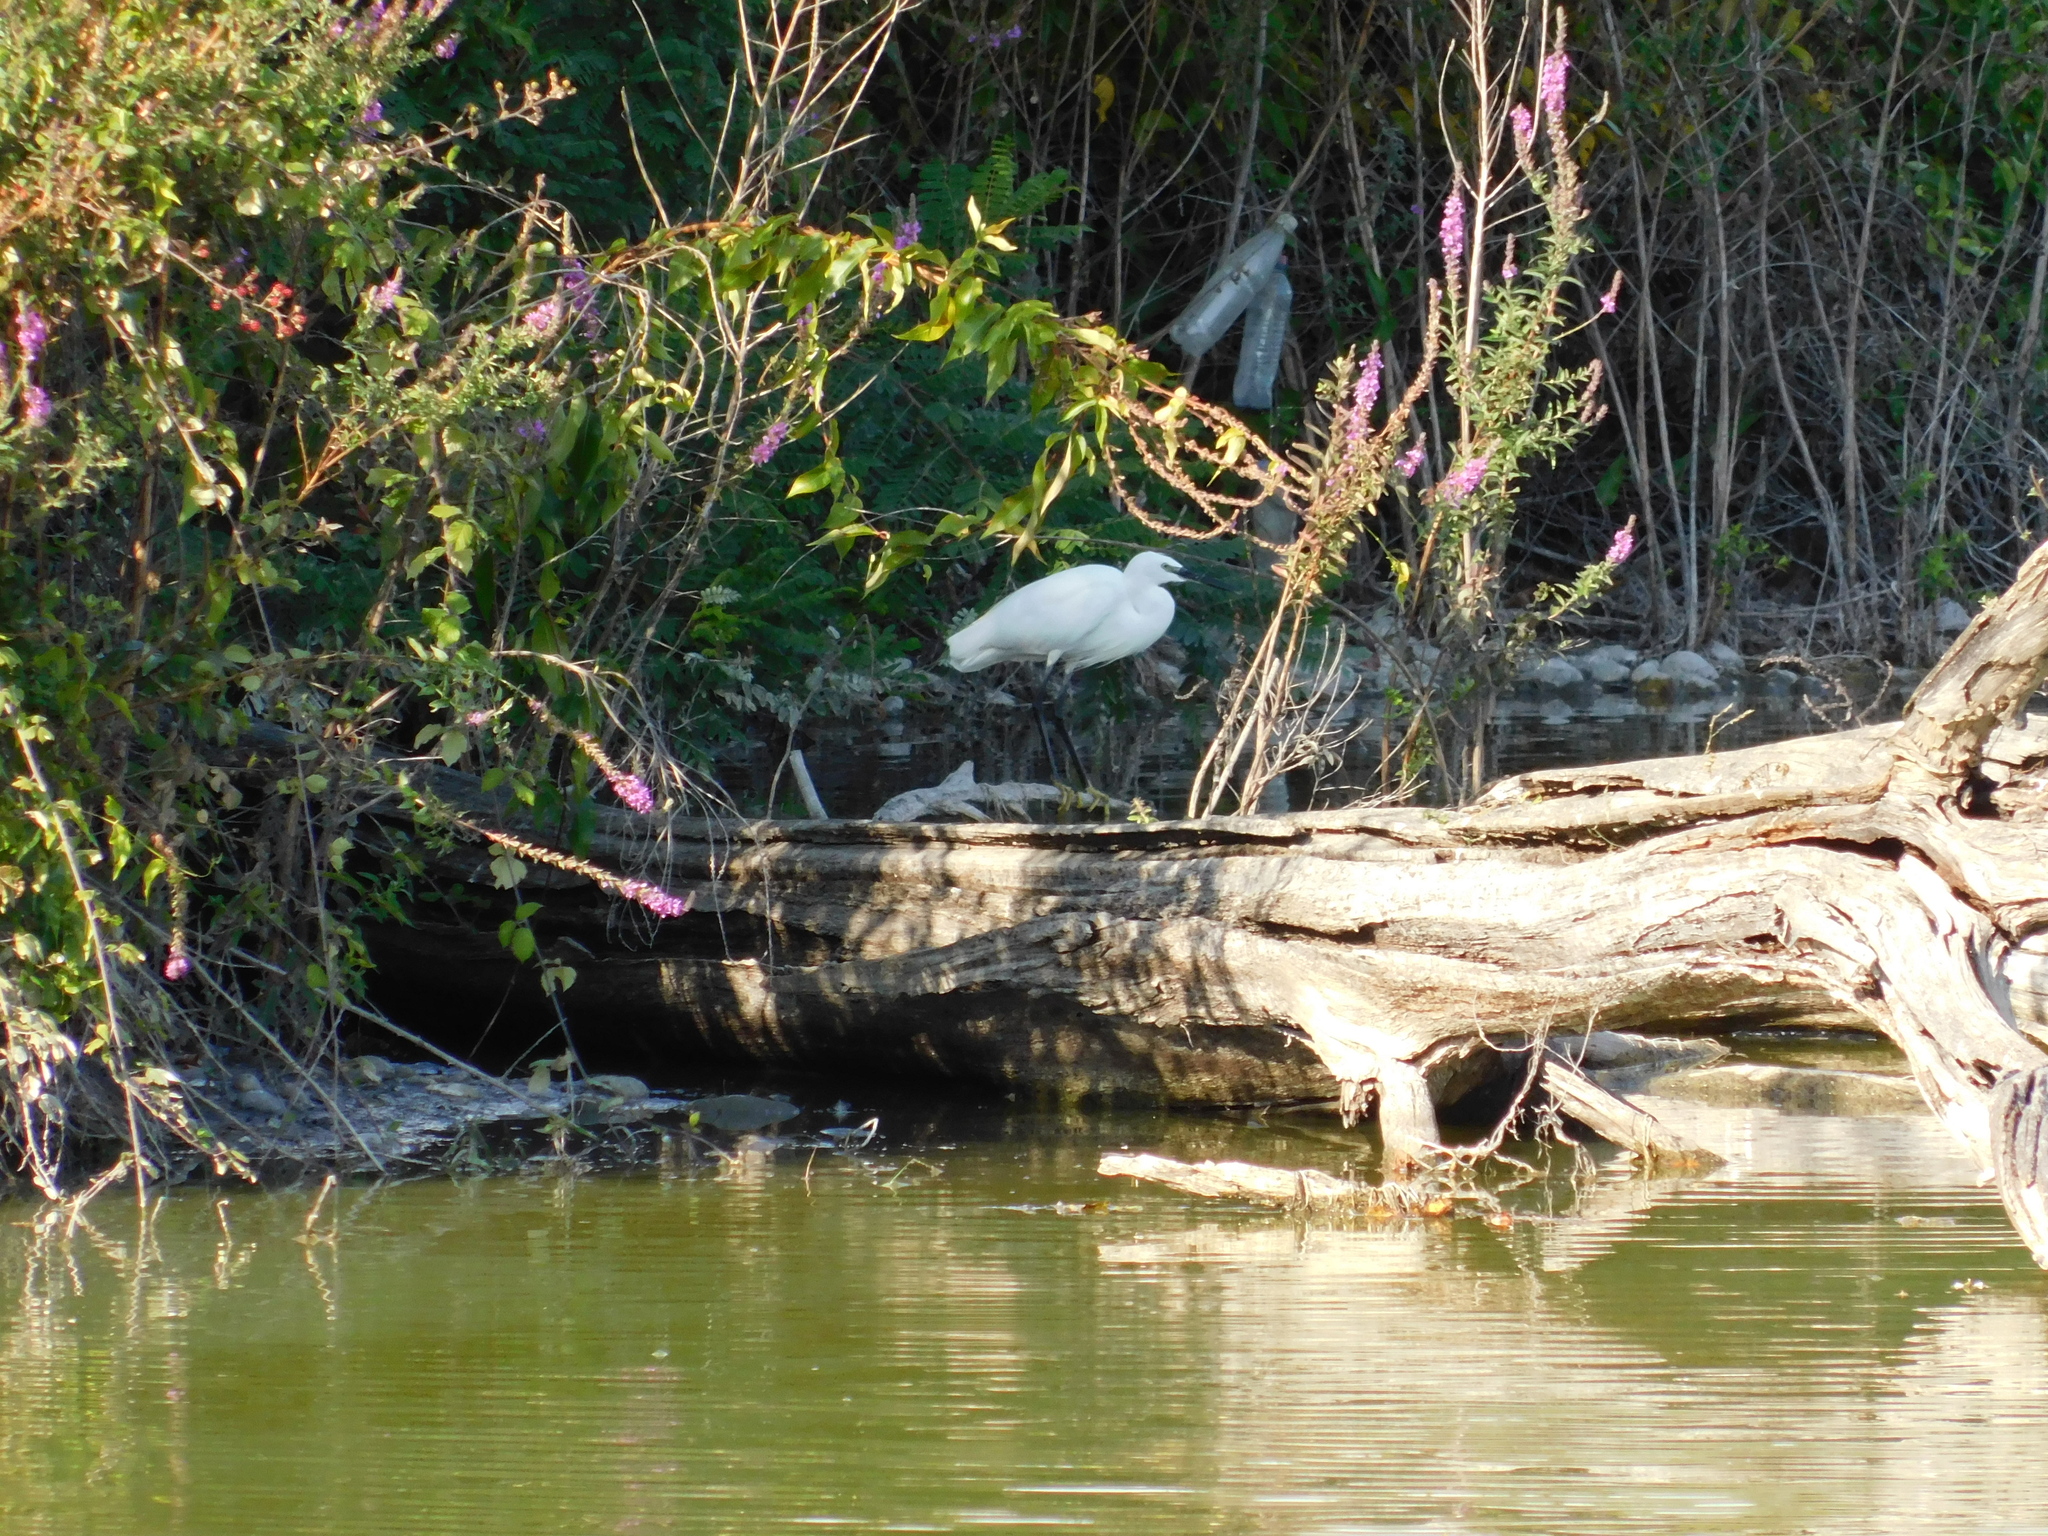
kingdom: Animalia
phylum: Chordata
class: Aves
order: Pelecaniformes
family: Ardeidae
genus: Egretta
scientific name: Egretta garzetta
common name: Little egret
